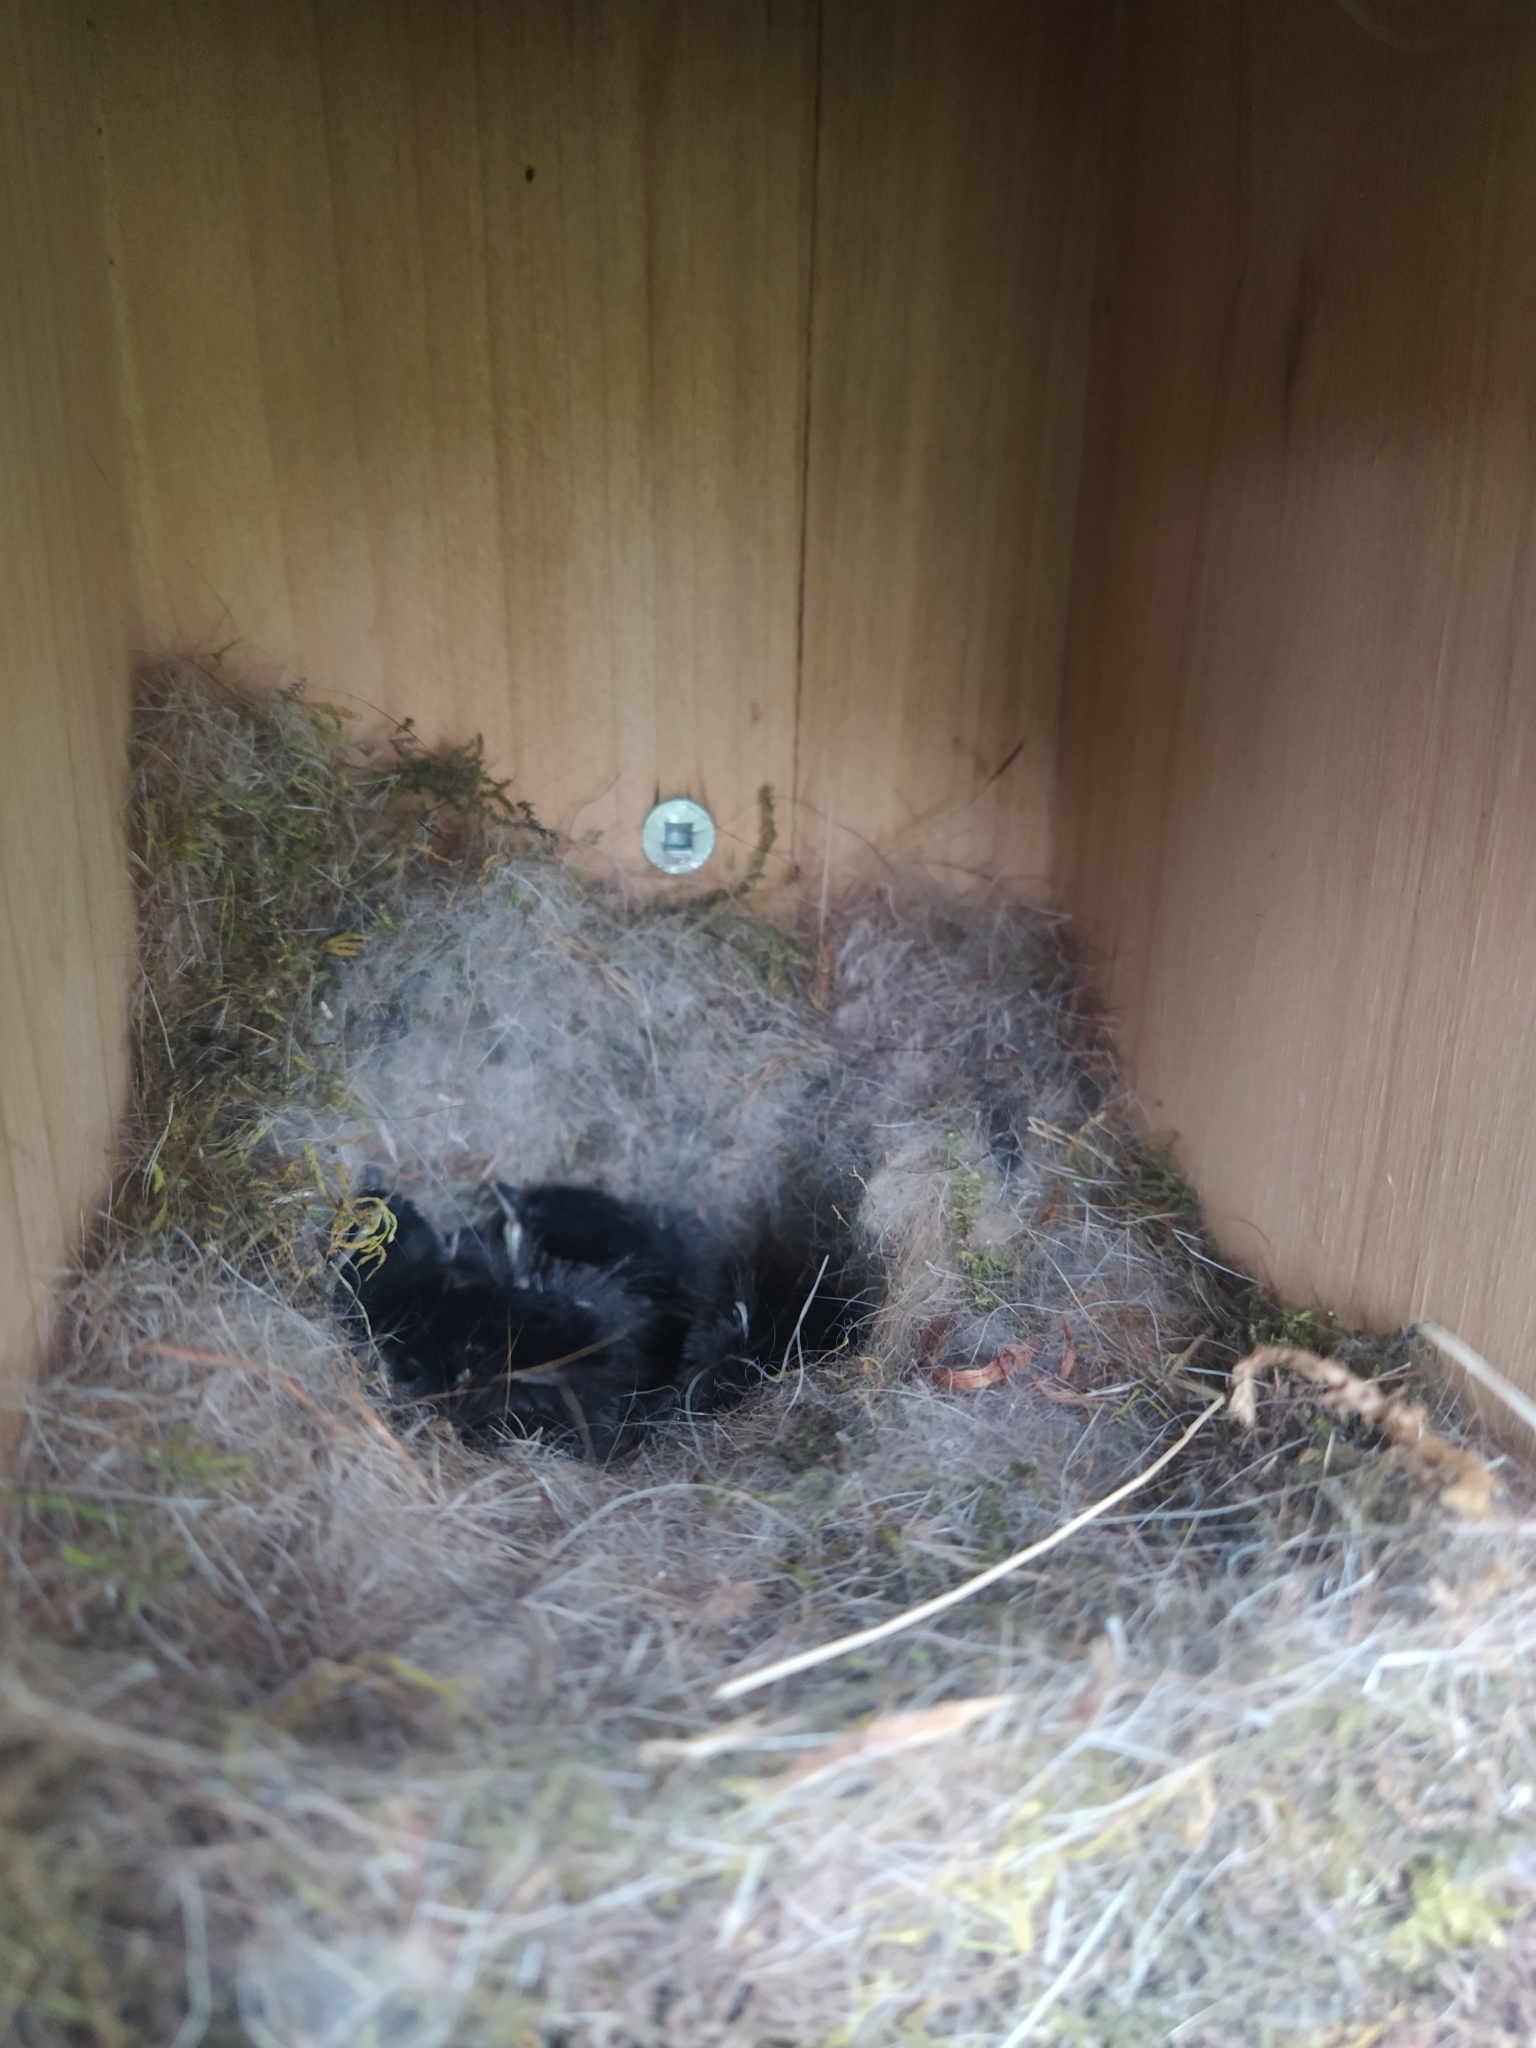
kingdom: Animalia
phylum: Chordata
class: Aves
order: Passeriformes
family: Paridae
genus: Poecile
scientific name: Poecile atricapillus
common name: Black-capped chickadee
